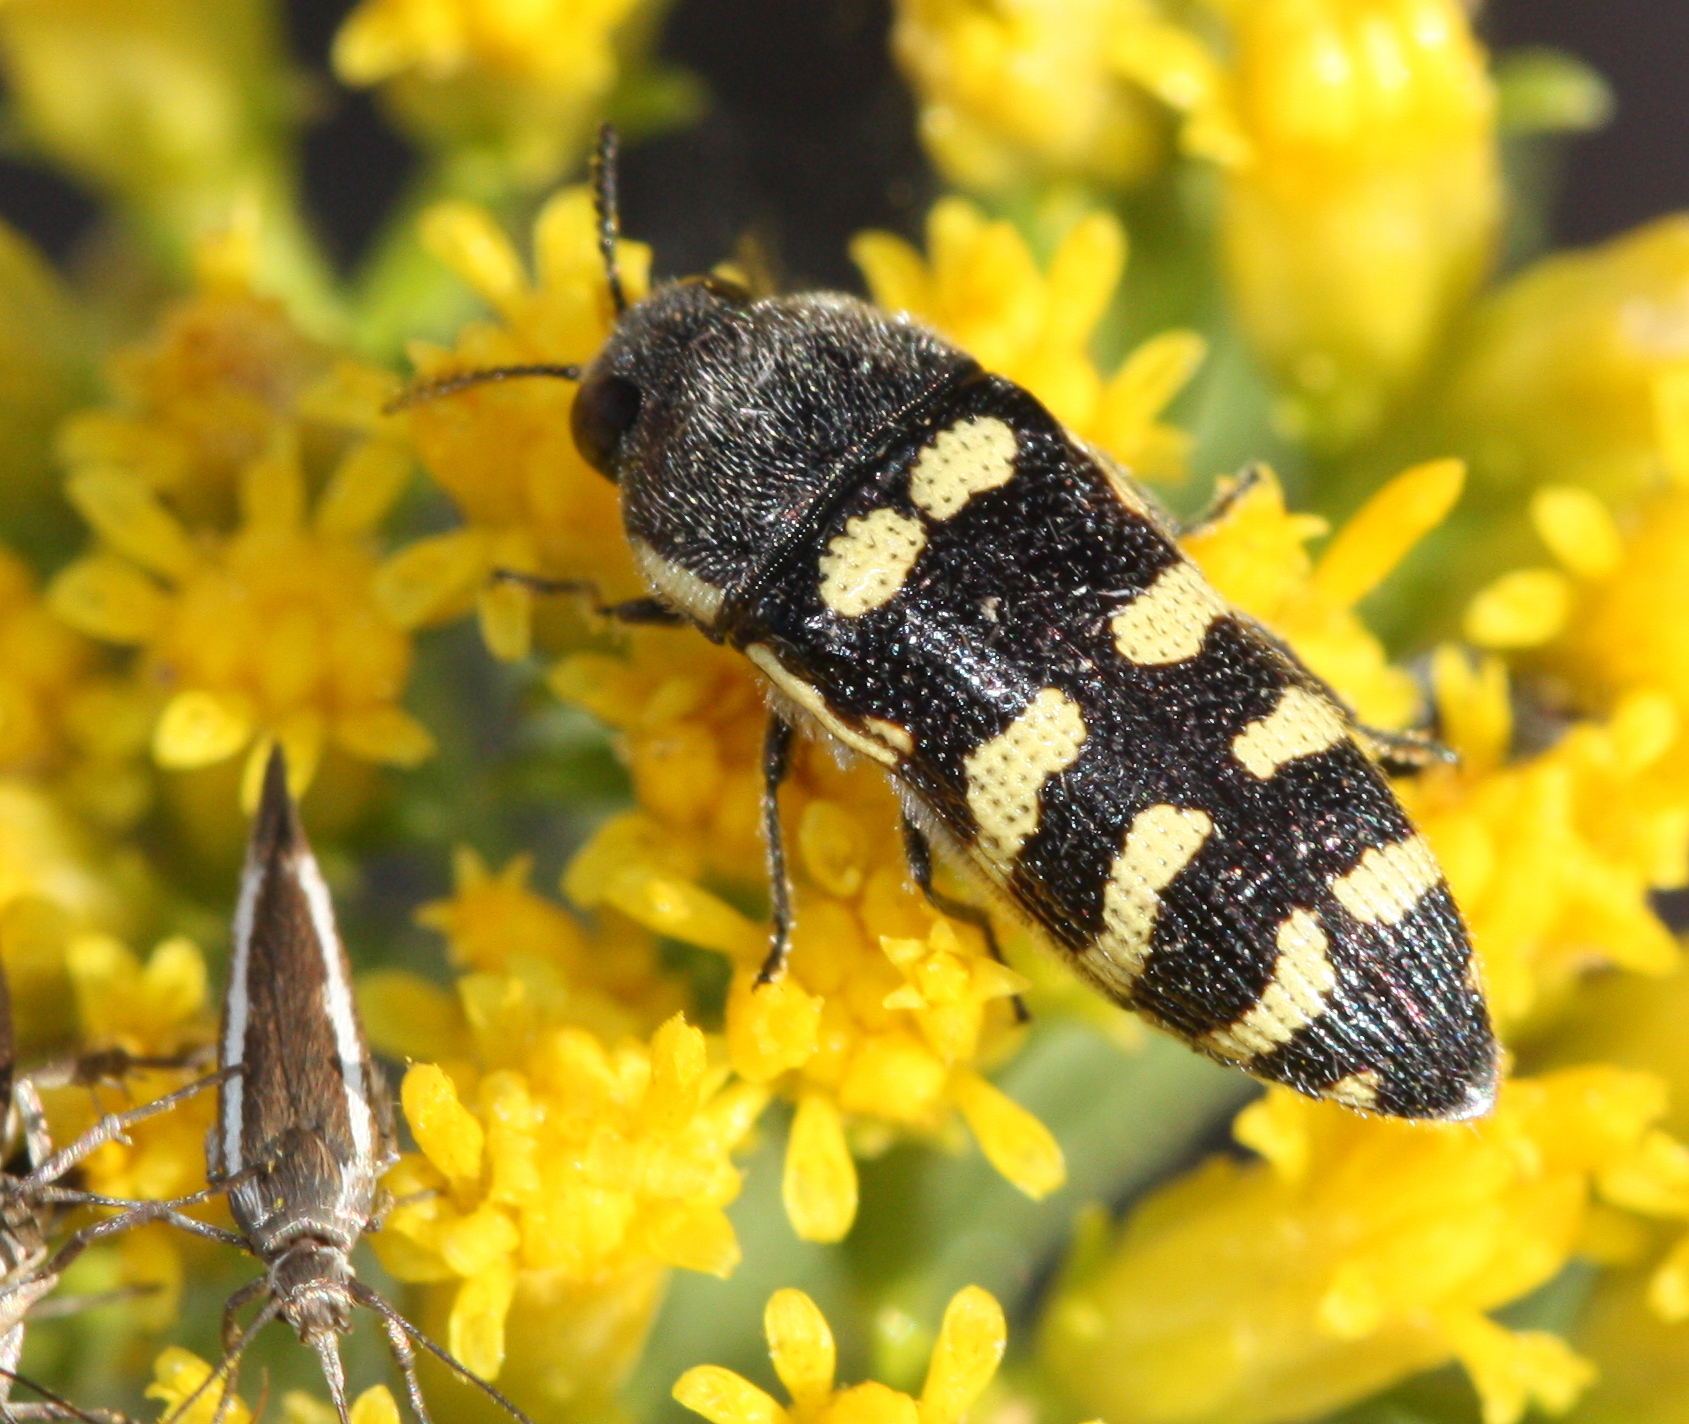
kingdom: Animalia
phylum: Arthropoda
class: Insecta
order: Coleoptera
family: Buprestidae
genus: Acmaeodera
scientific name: Acmaeodera alicia
